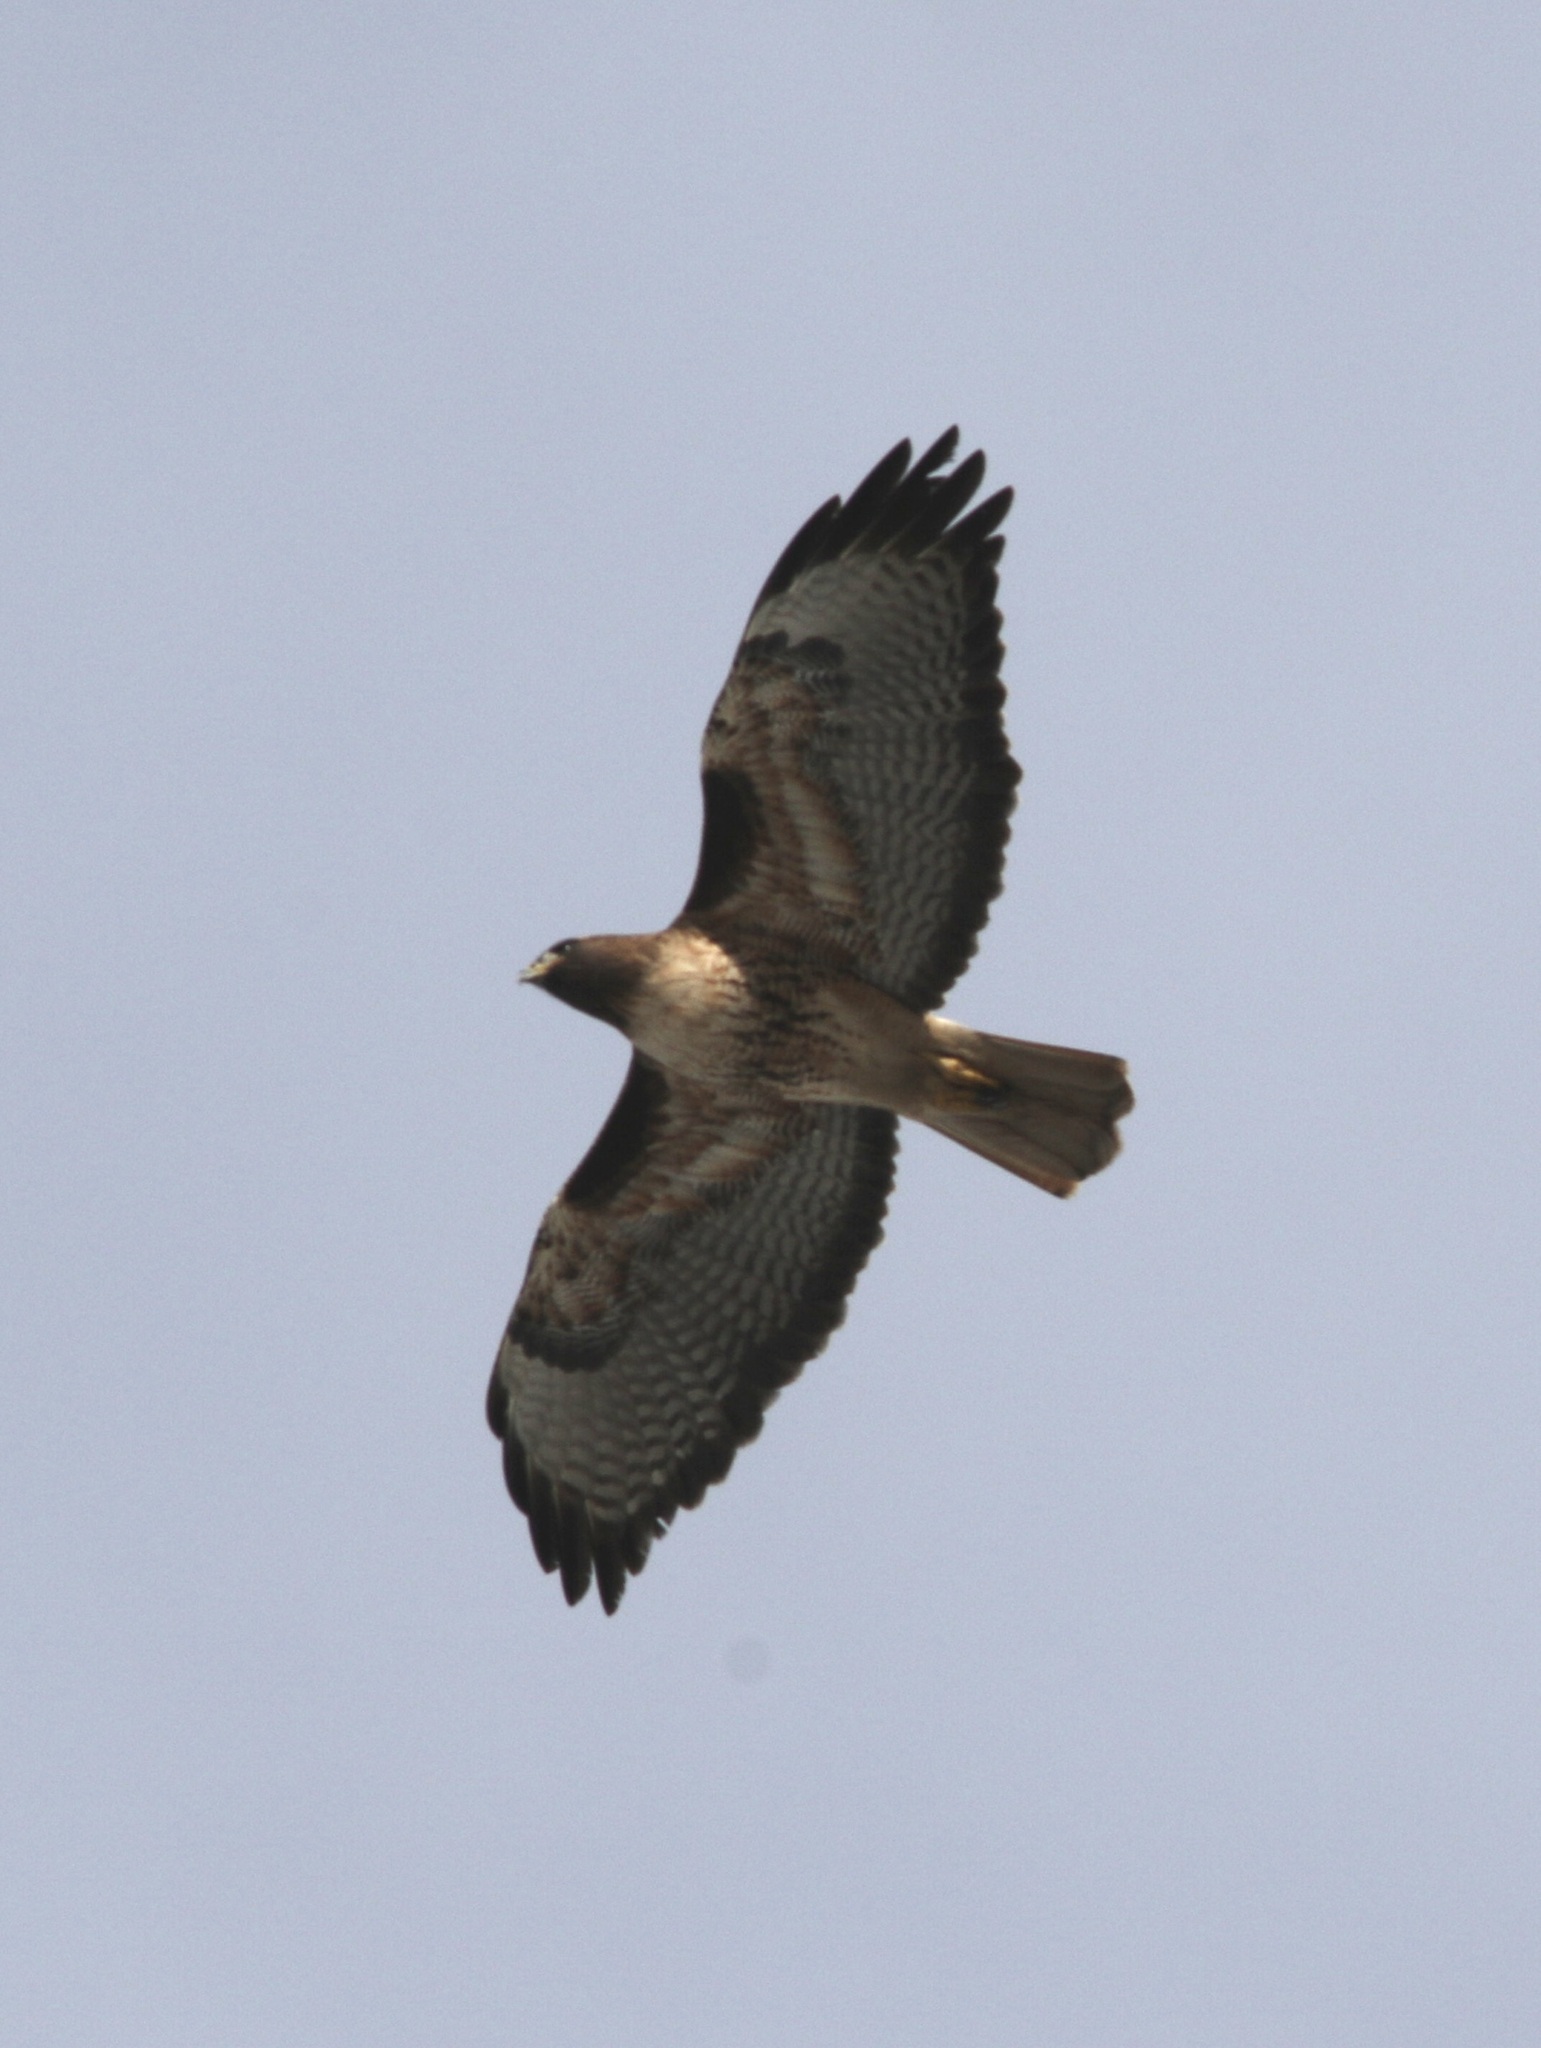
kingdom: Animalia
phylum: Chordata
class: Aves
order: Accipitriformes
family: Accipitridae
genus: Buteo
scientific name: Buteo jamaicensis
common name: Red-tailed hawk
